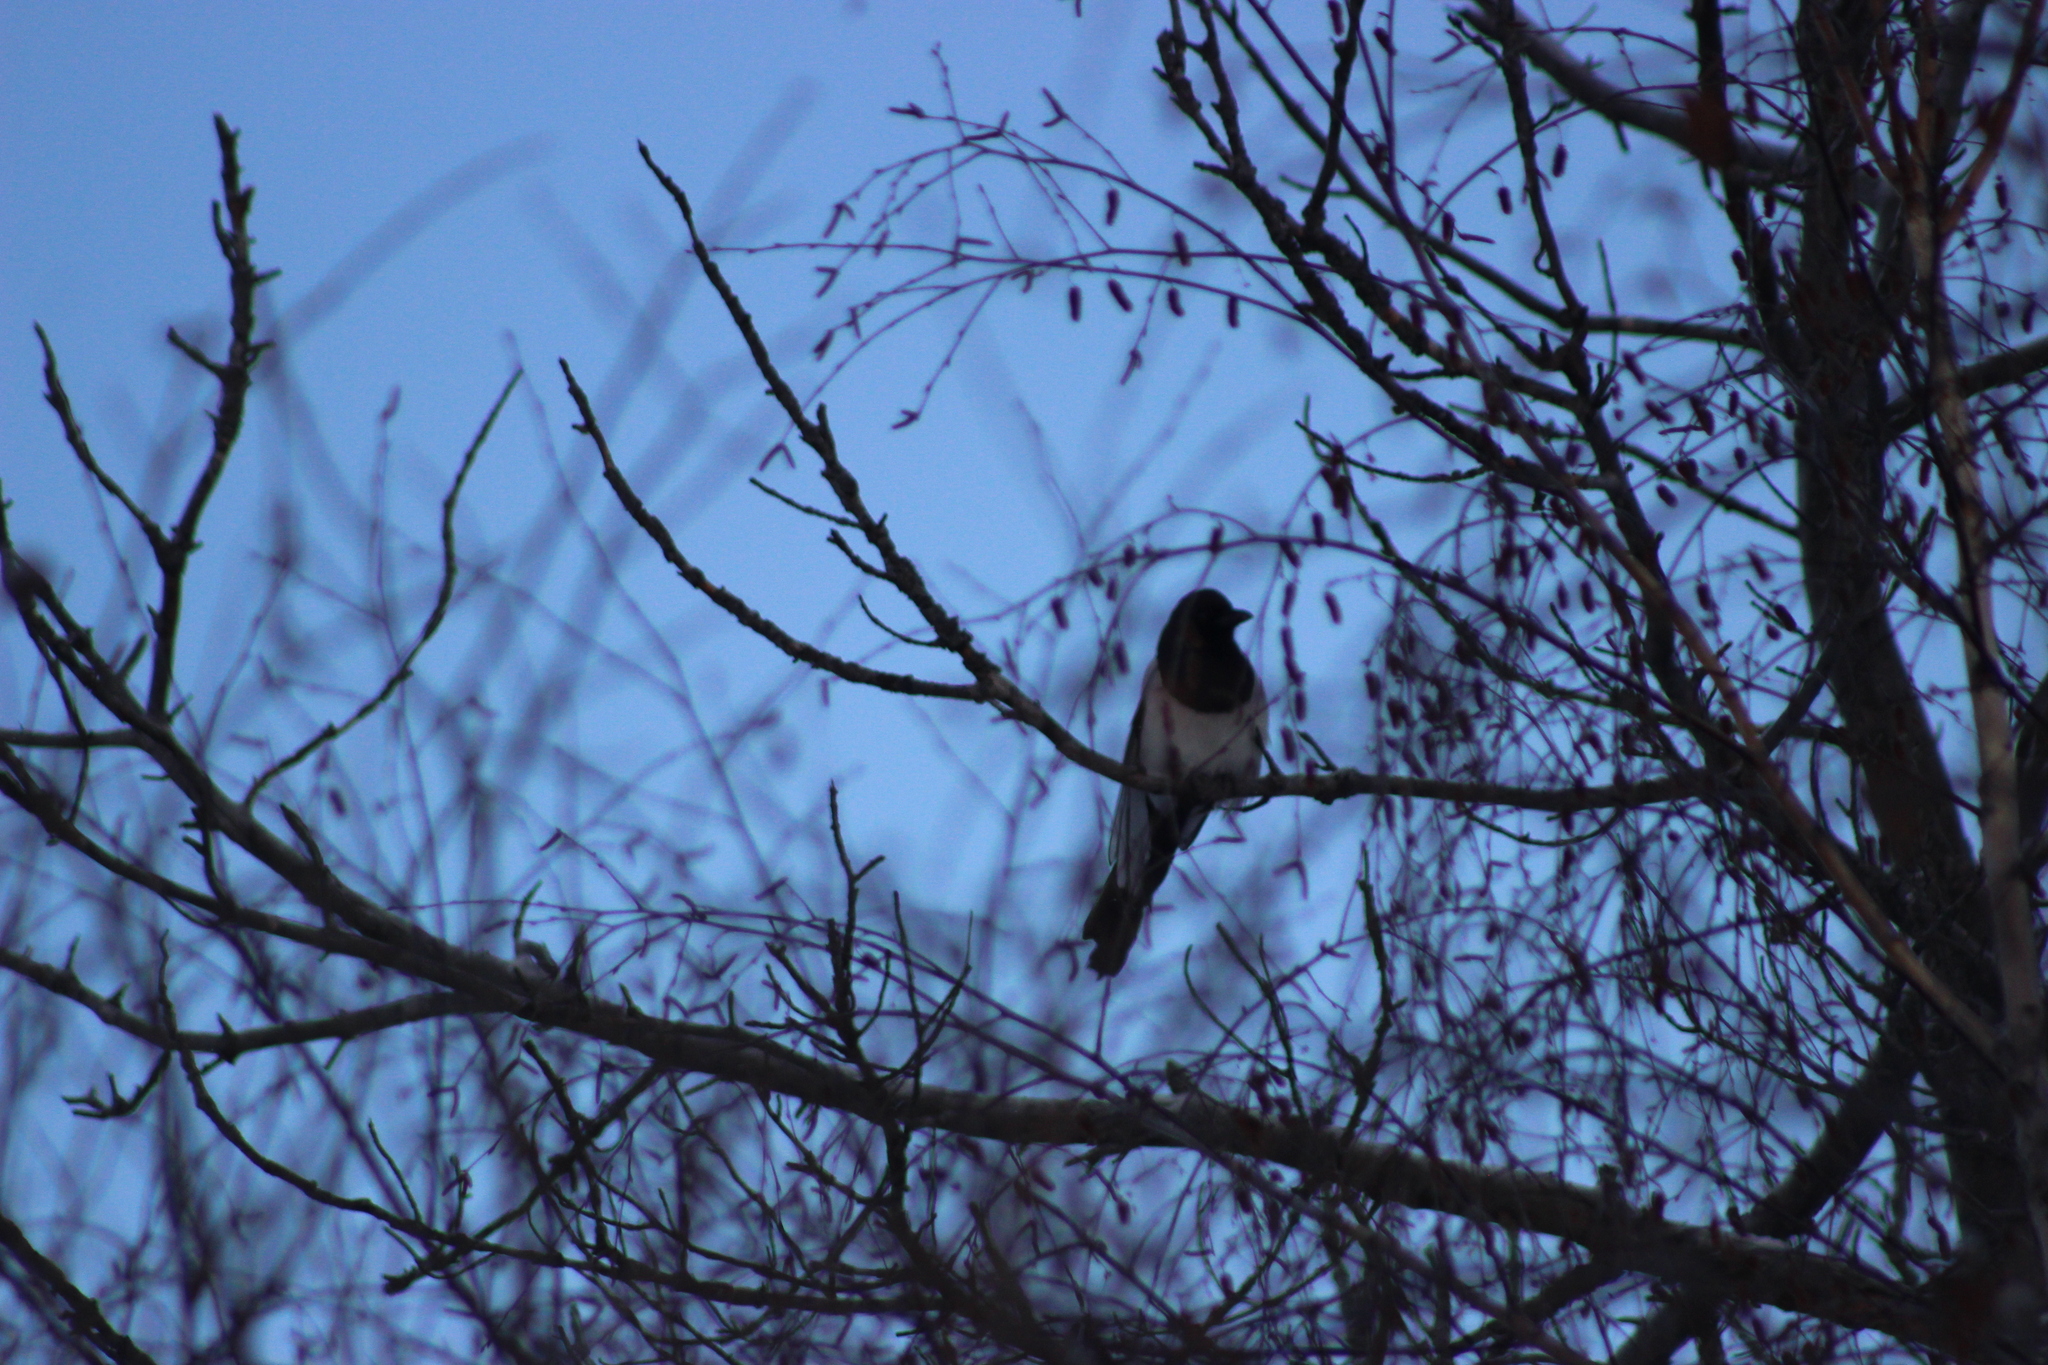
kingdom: Animalia
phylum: Chordata
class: Aves
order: Passeriformes
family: Corvidae
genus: Pica
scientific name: Pica pica
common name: Eurasian magpie
